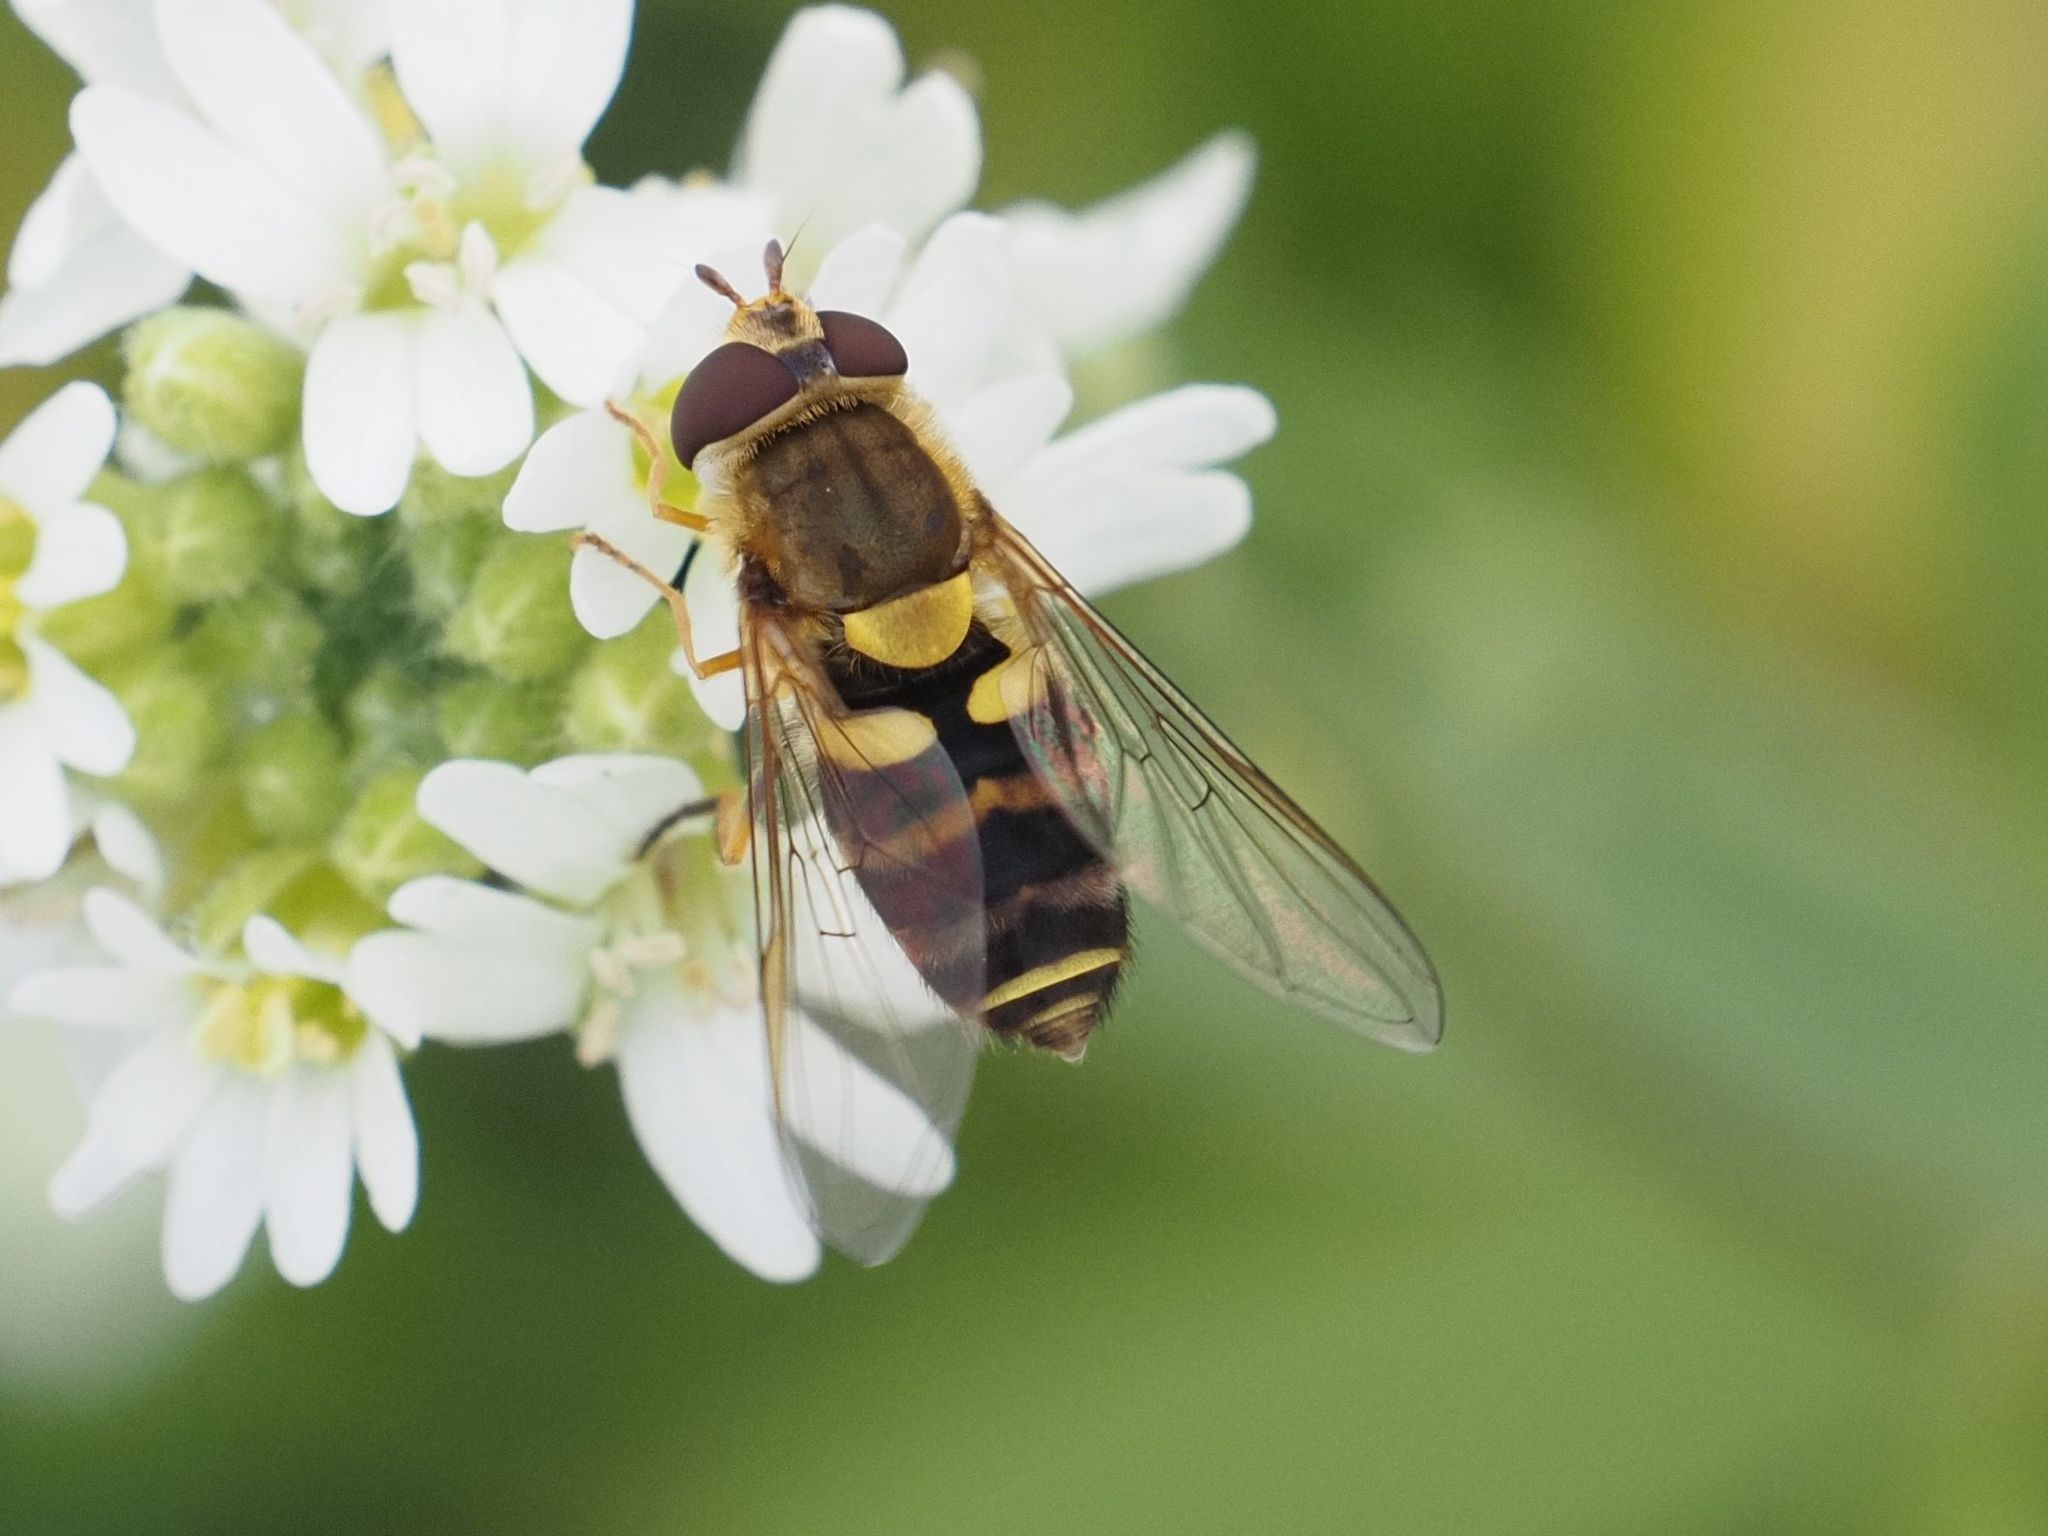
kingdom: Animalia
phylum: Arthropoda
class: Insecta
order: Diptera
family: Syrphidae
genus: Syrphus
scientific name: Syrphus
